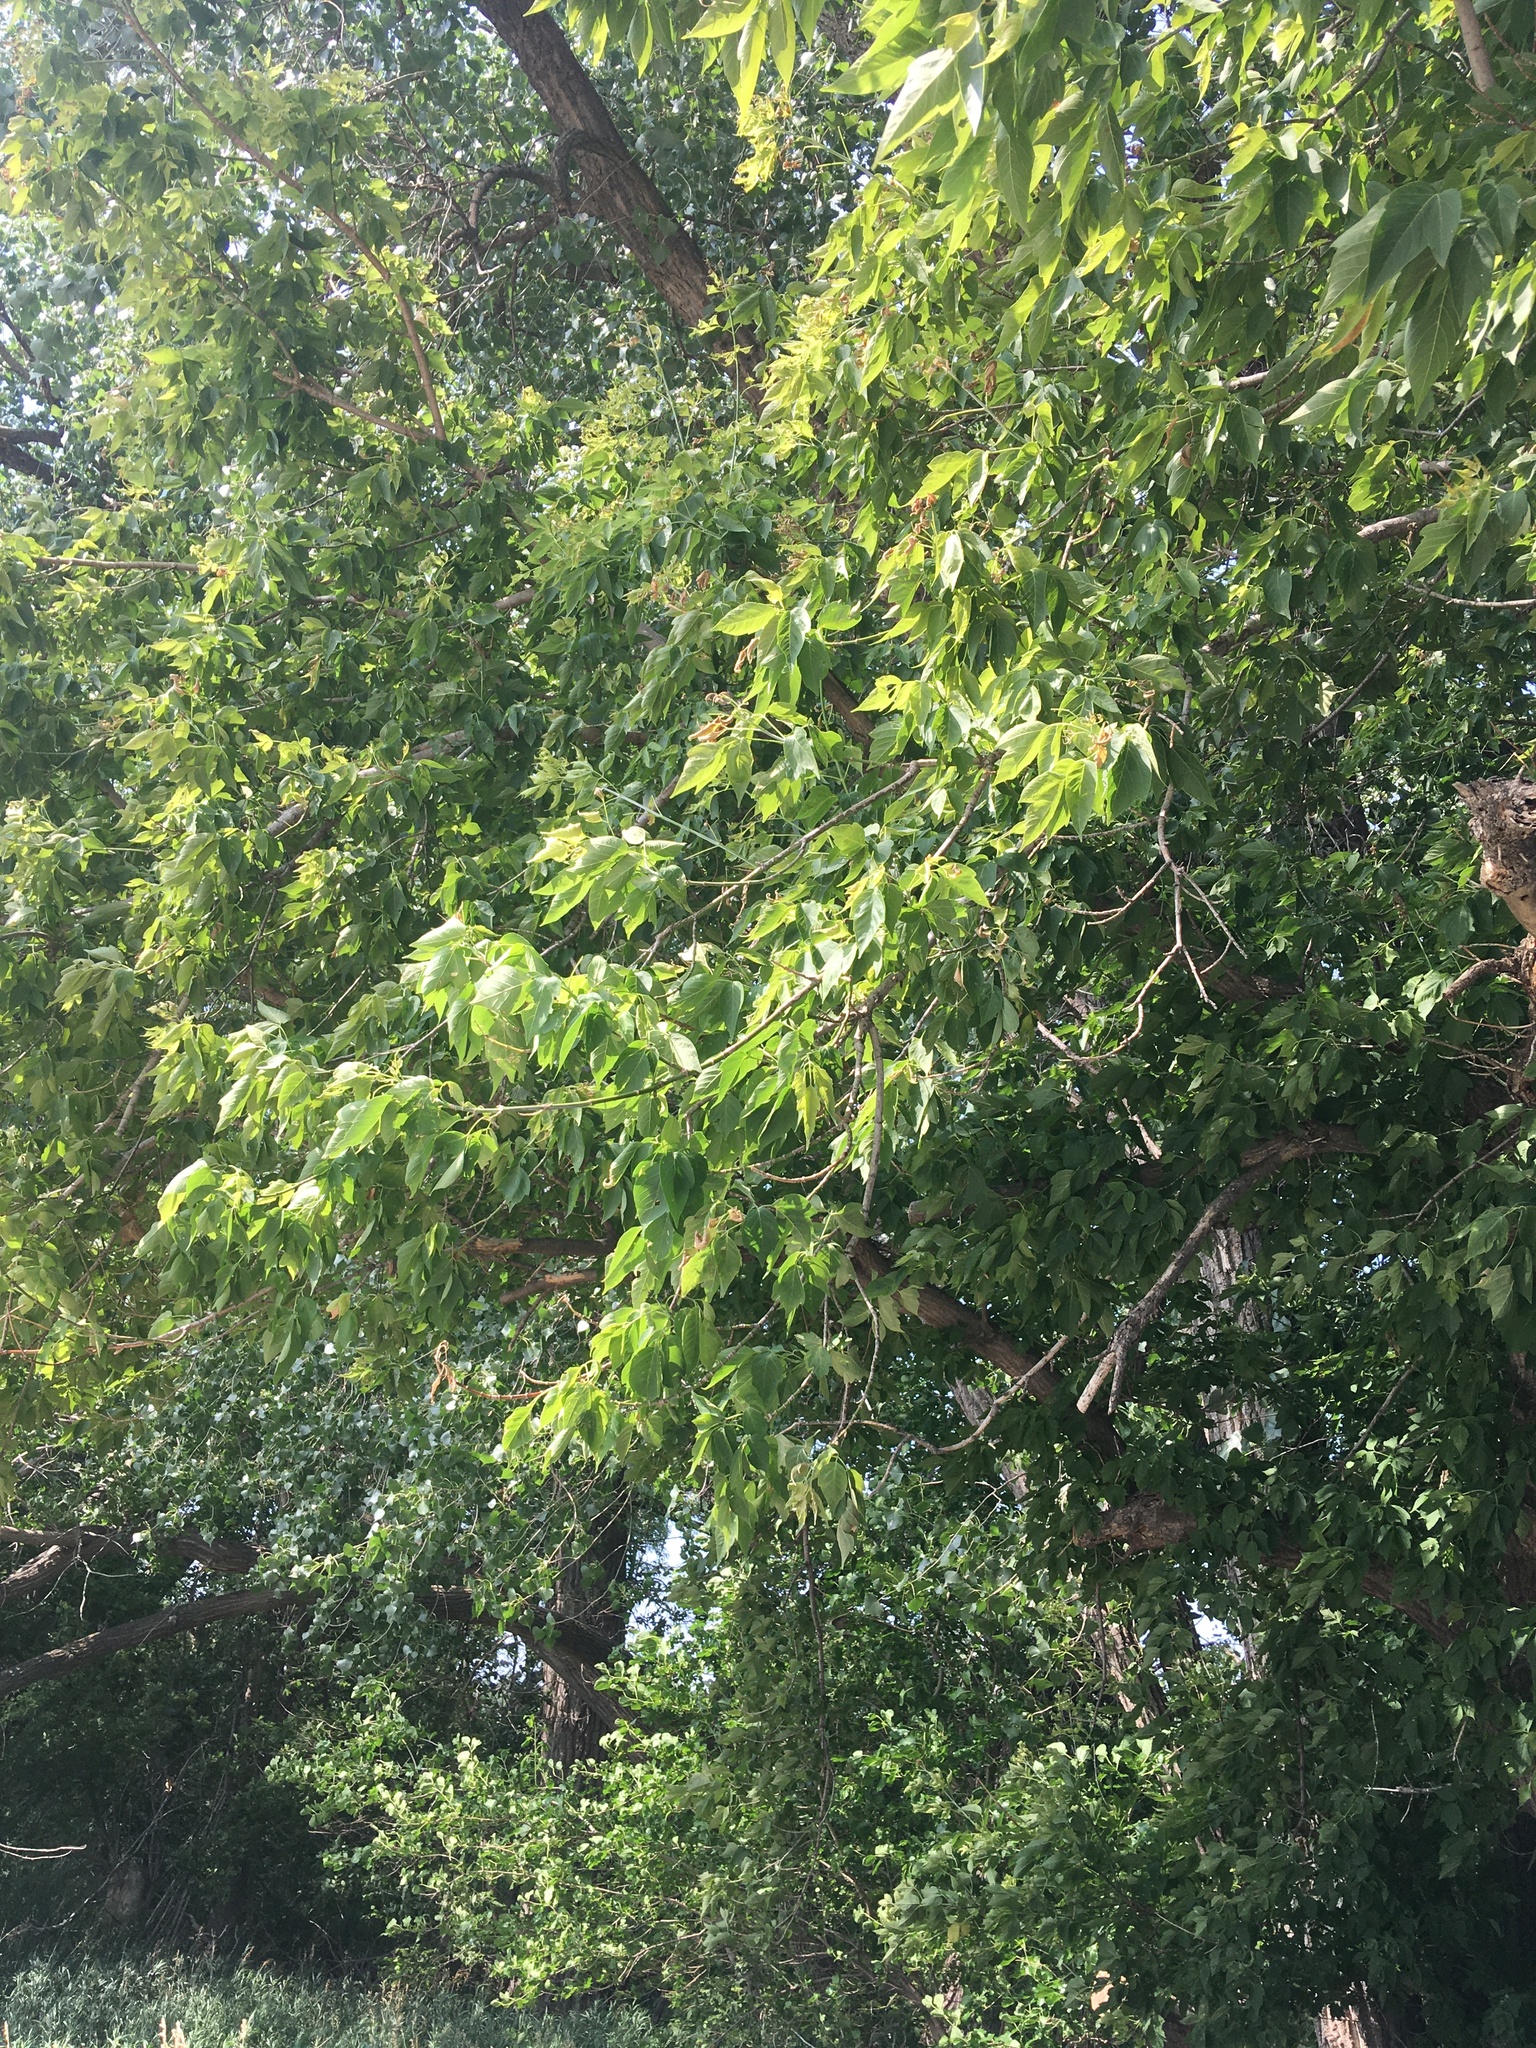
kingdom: Plantae
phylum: Tracheophyta
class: Magnoliopsida
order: Sapindales
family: Sapindaceae
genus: Acer
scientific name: Acer negundo
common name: Ashleaf maple
